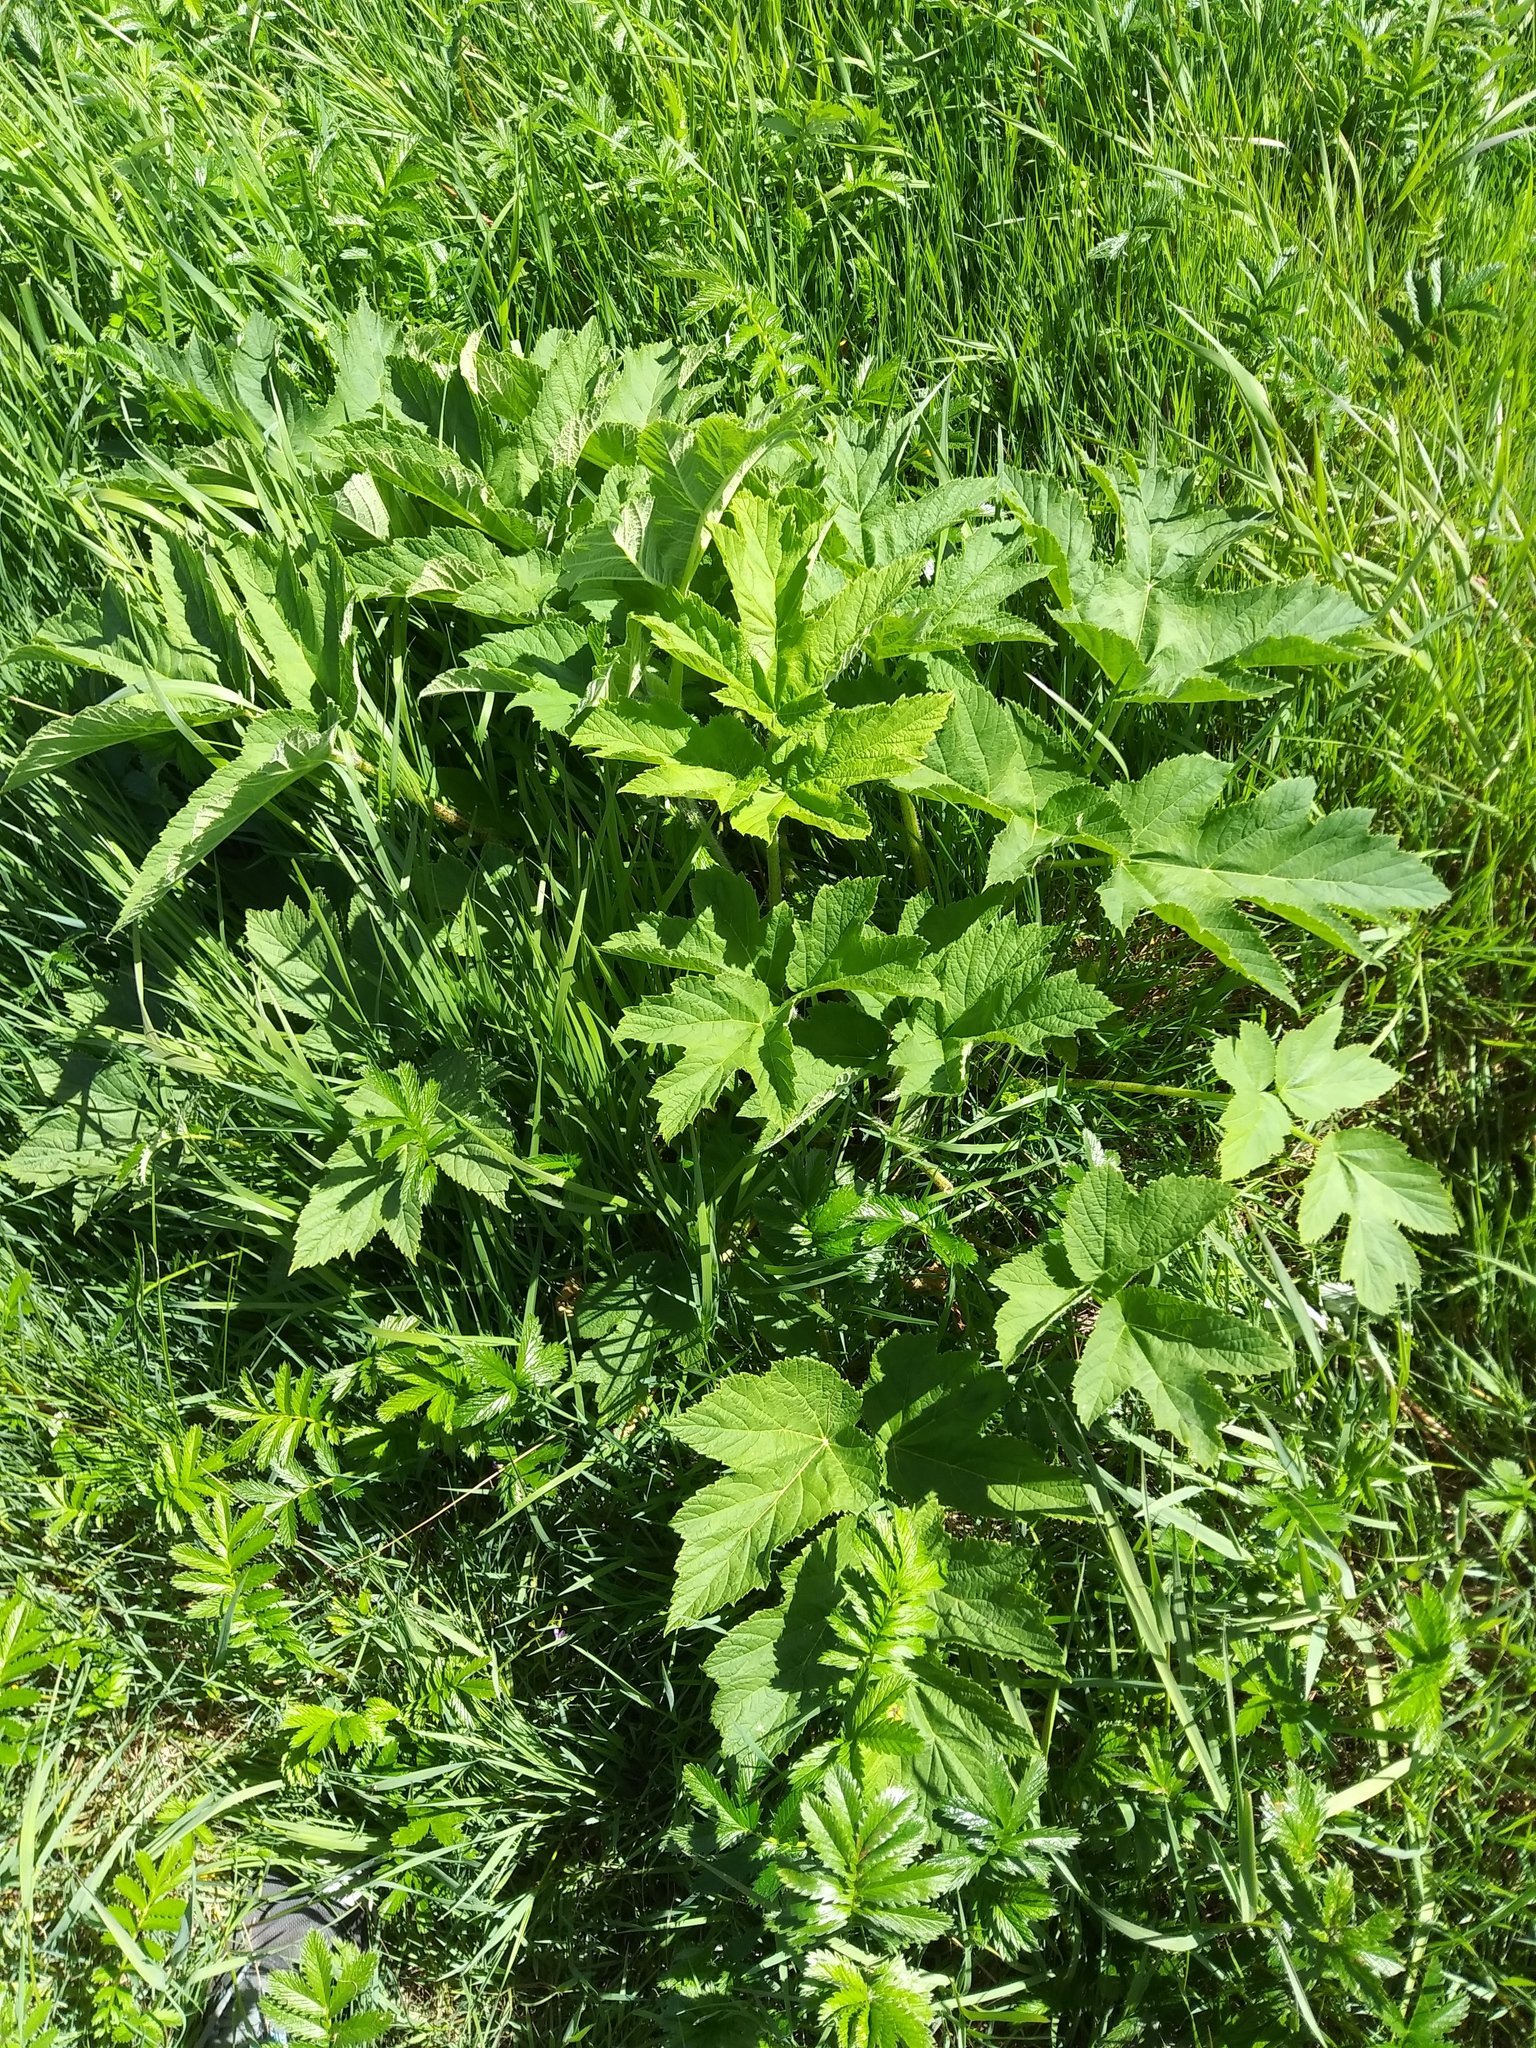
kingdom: Plantae
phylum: Tracheophyta
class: Magnoliopsida
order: Apiales
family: Apiaceae
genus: Heracleum
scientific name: Heracleum maximum
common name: American cow parsnip
